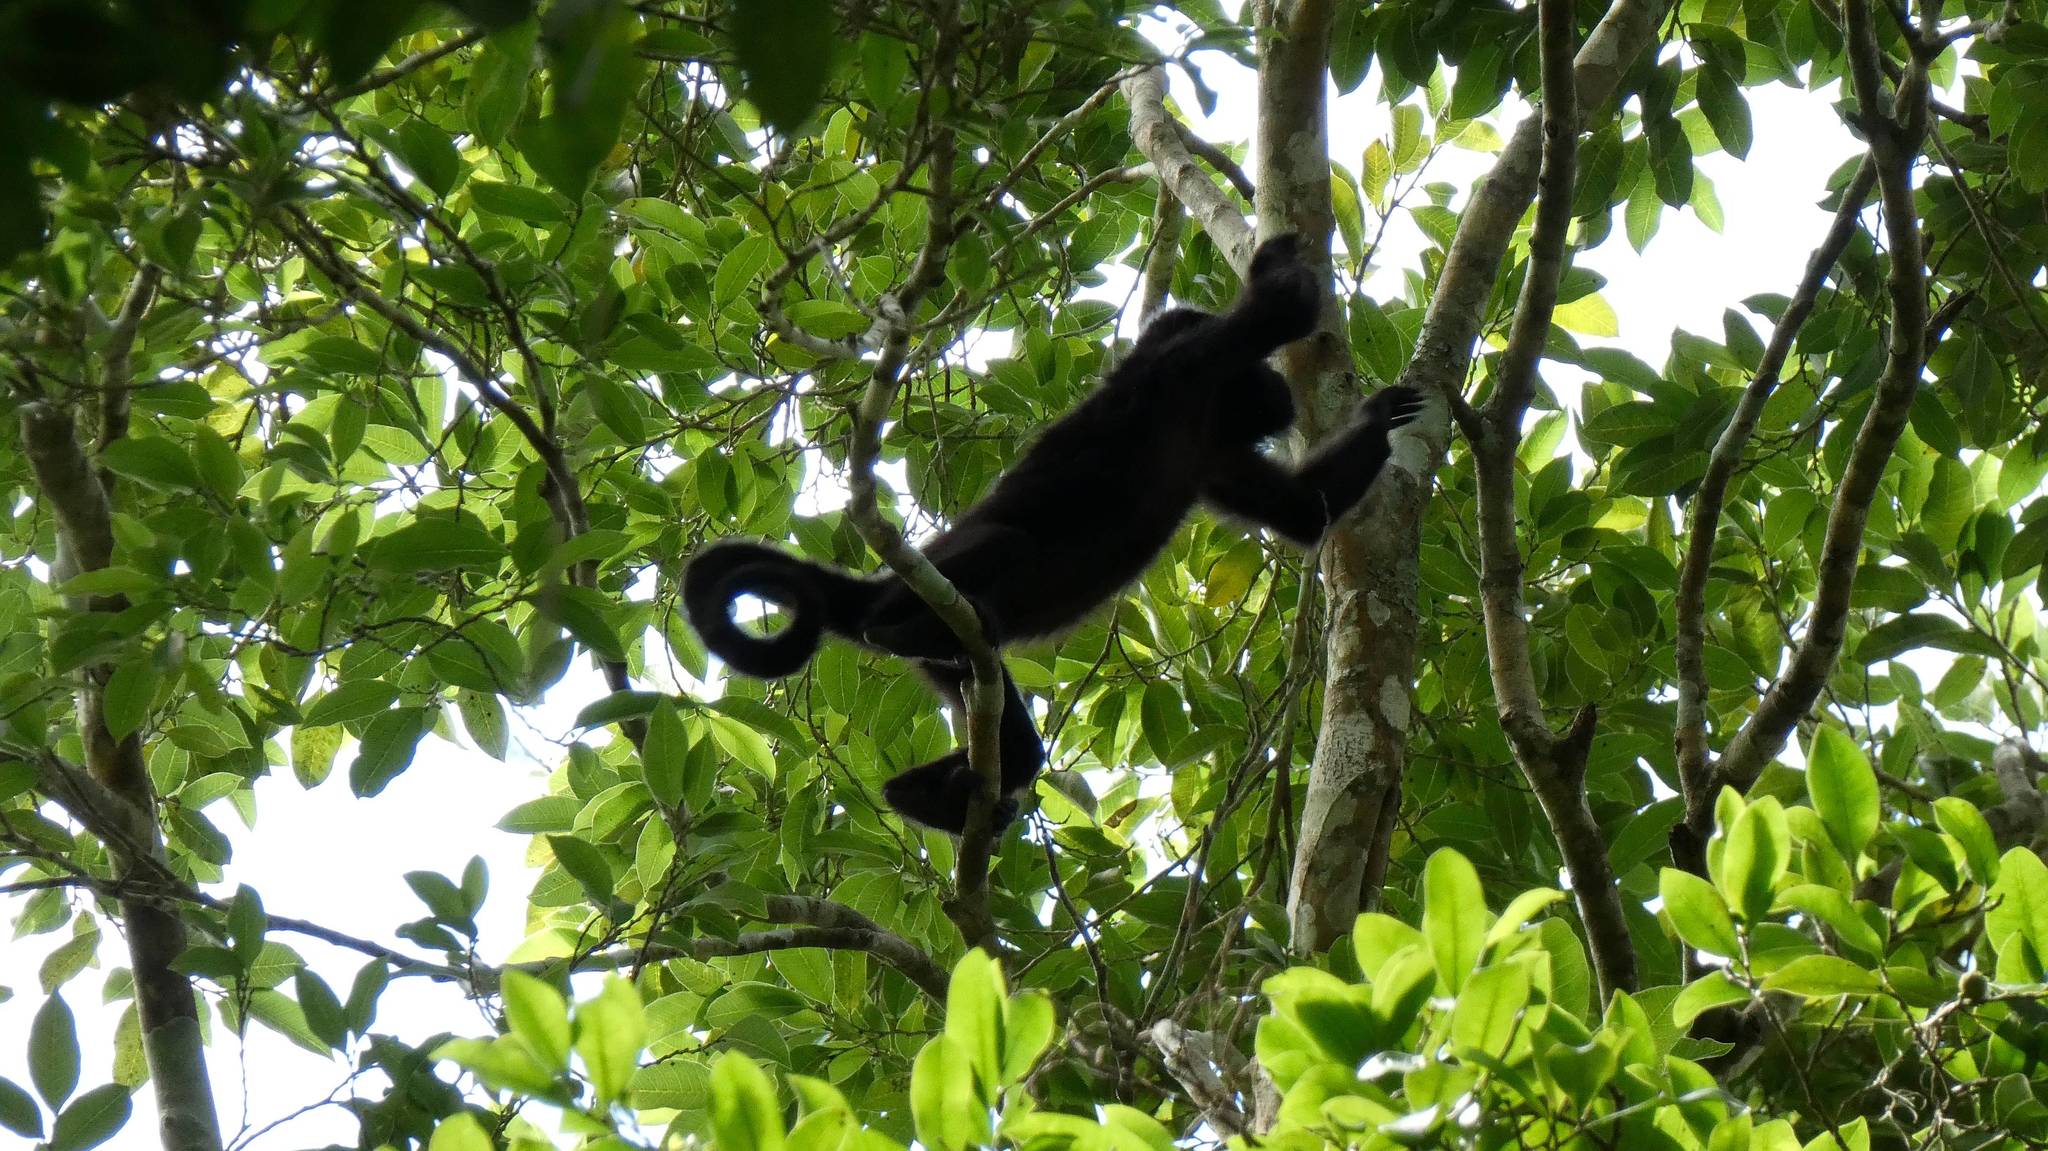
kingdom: Animalia
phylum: Chordata
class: Mammalia
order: Primates
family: Atelidae
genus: Alouatta
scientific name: Alouatta pigra
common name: Guatemalan black howler
